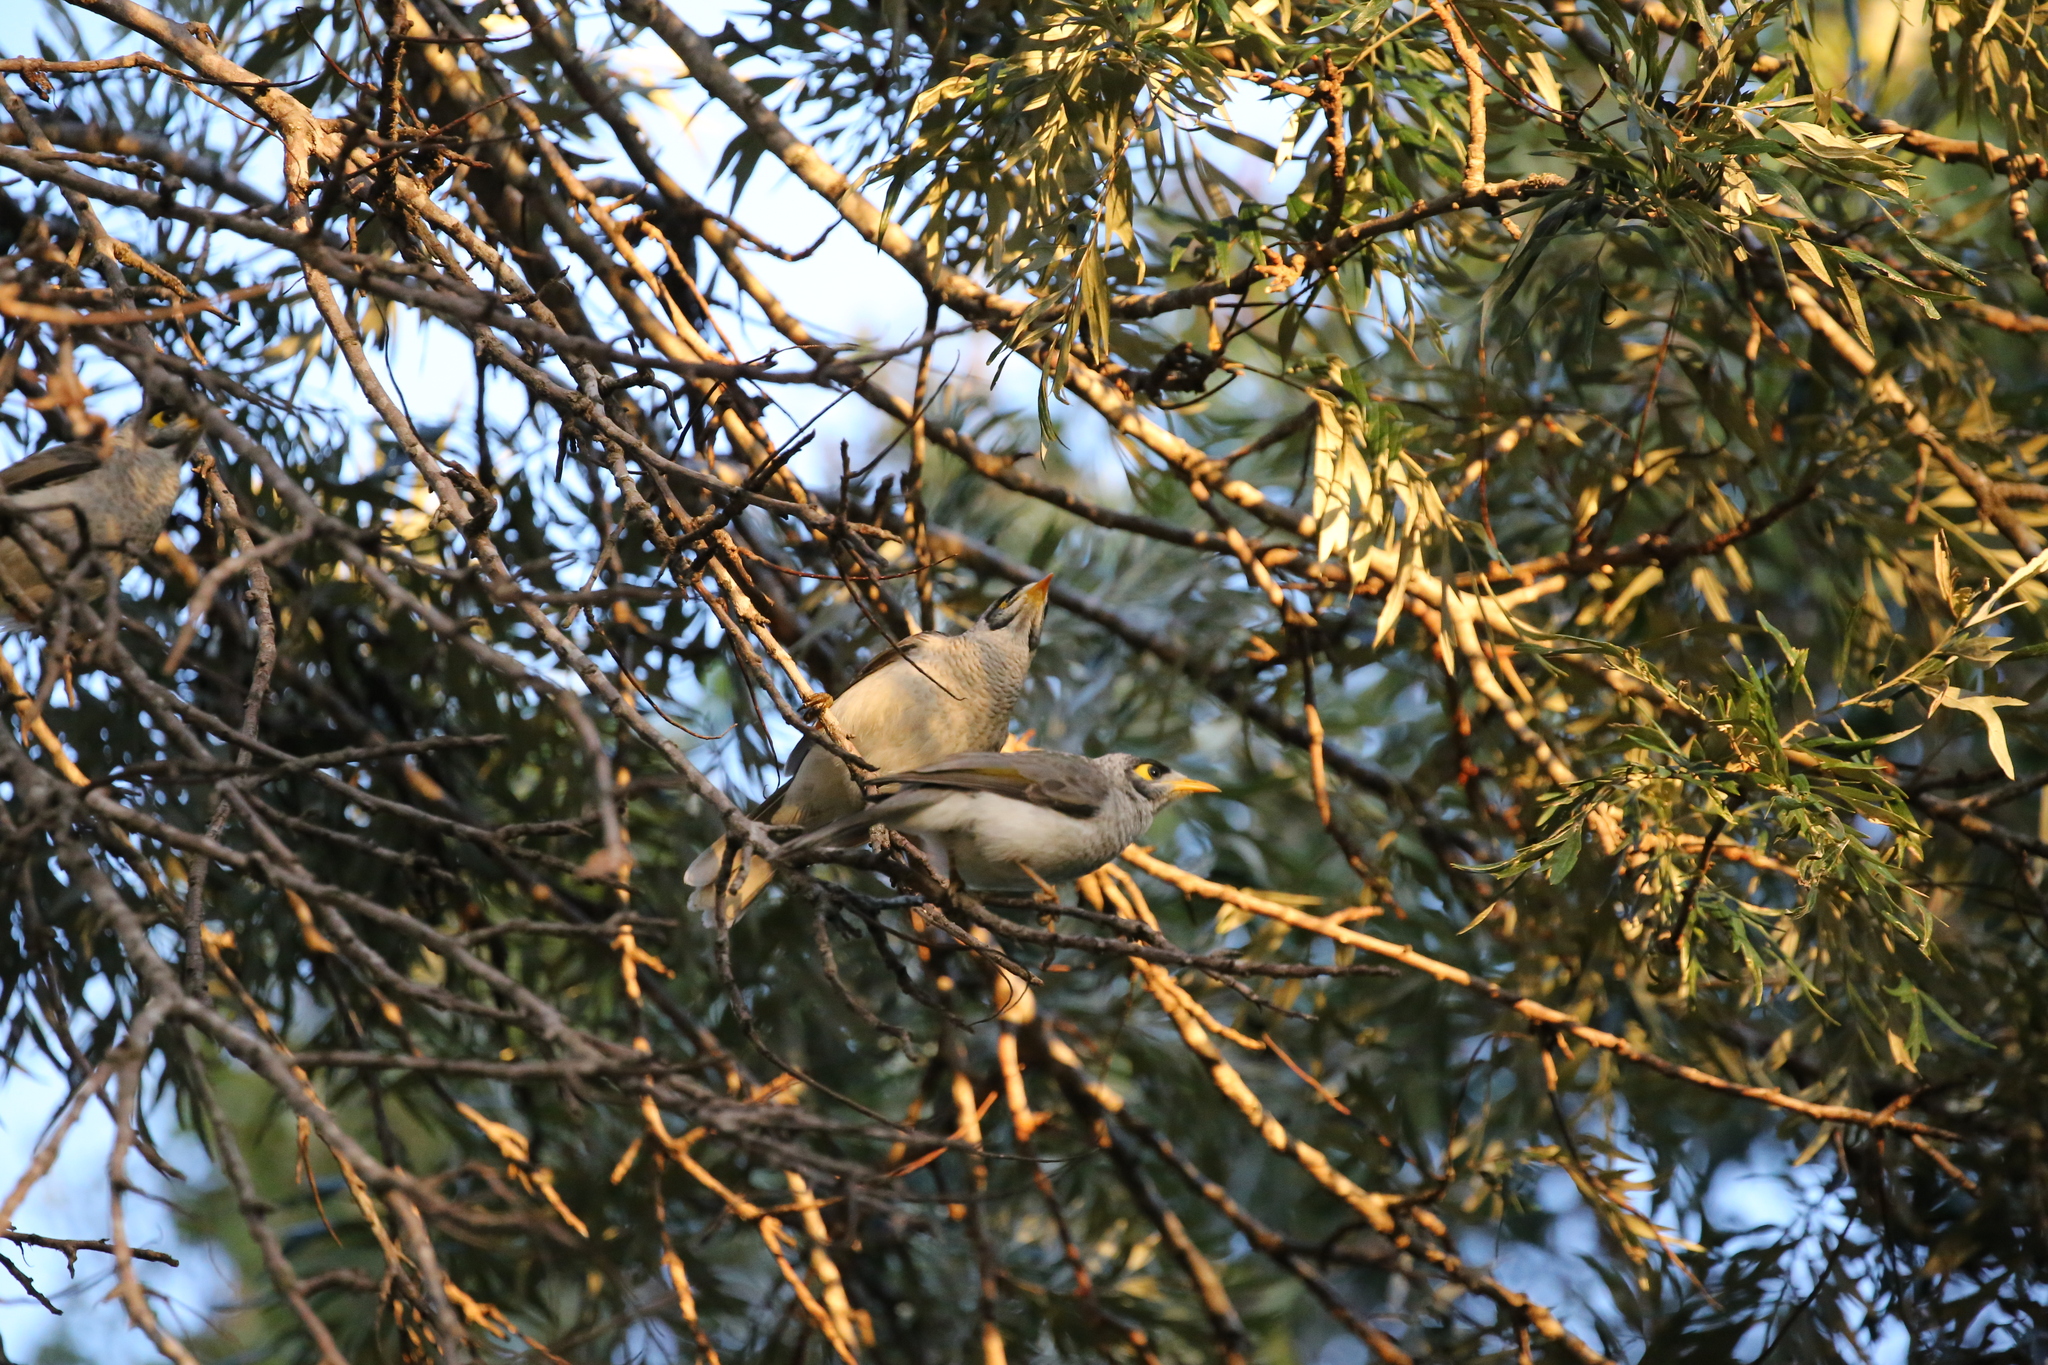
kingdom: Animalia
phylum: Chordata
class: Aves
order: Passeriformes
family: Meliphagidae
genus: Manorina
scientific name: Manorina melanocephala
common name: Noisy miner
